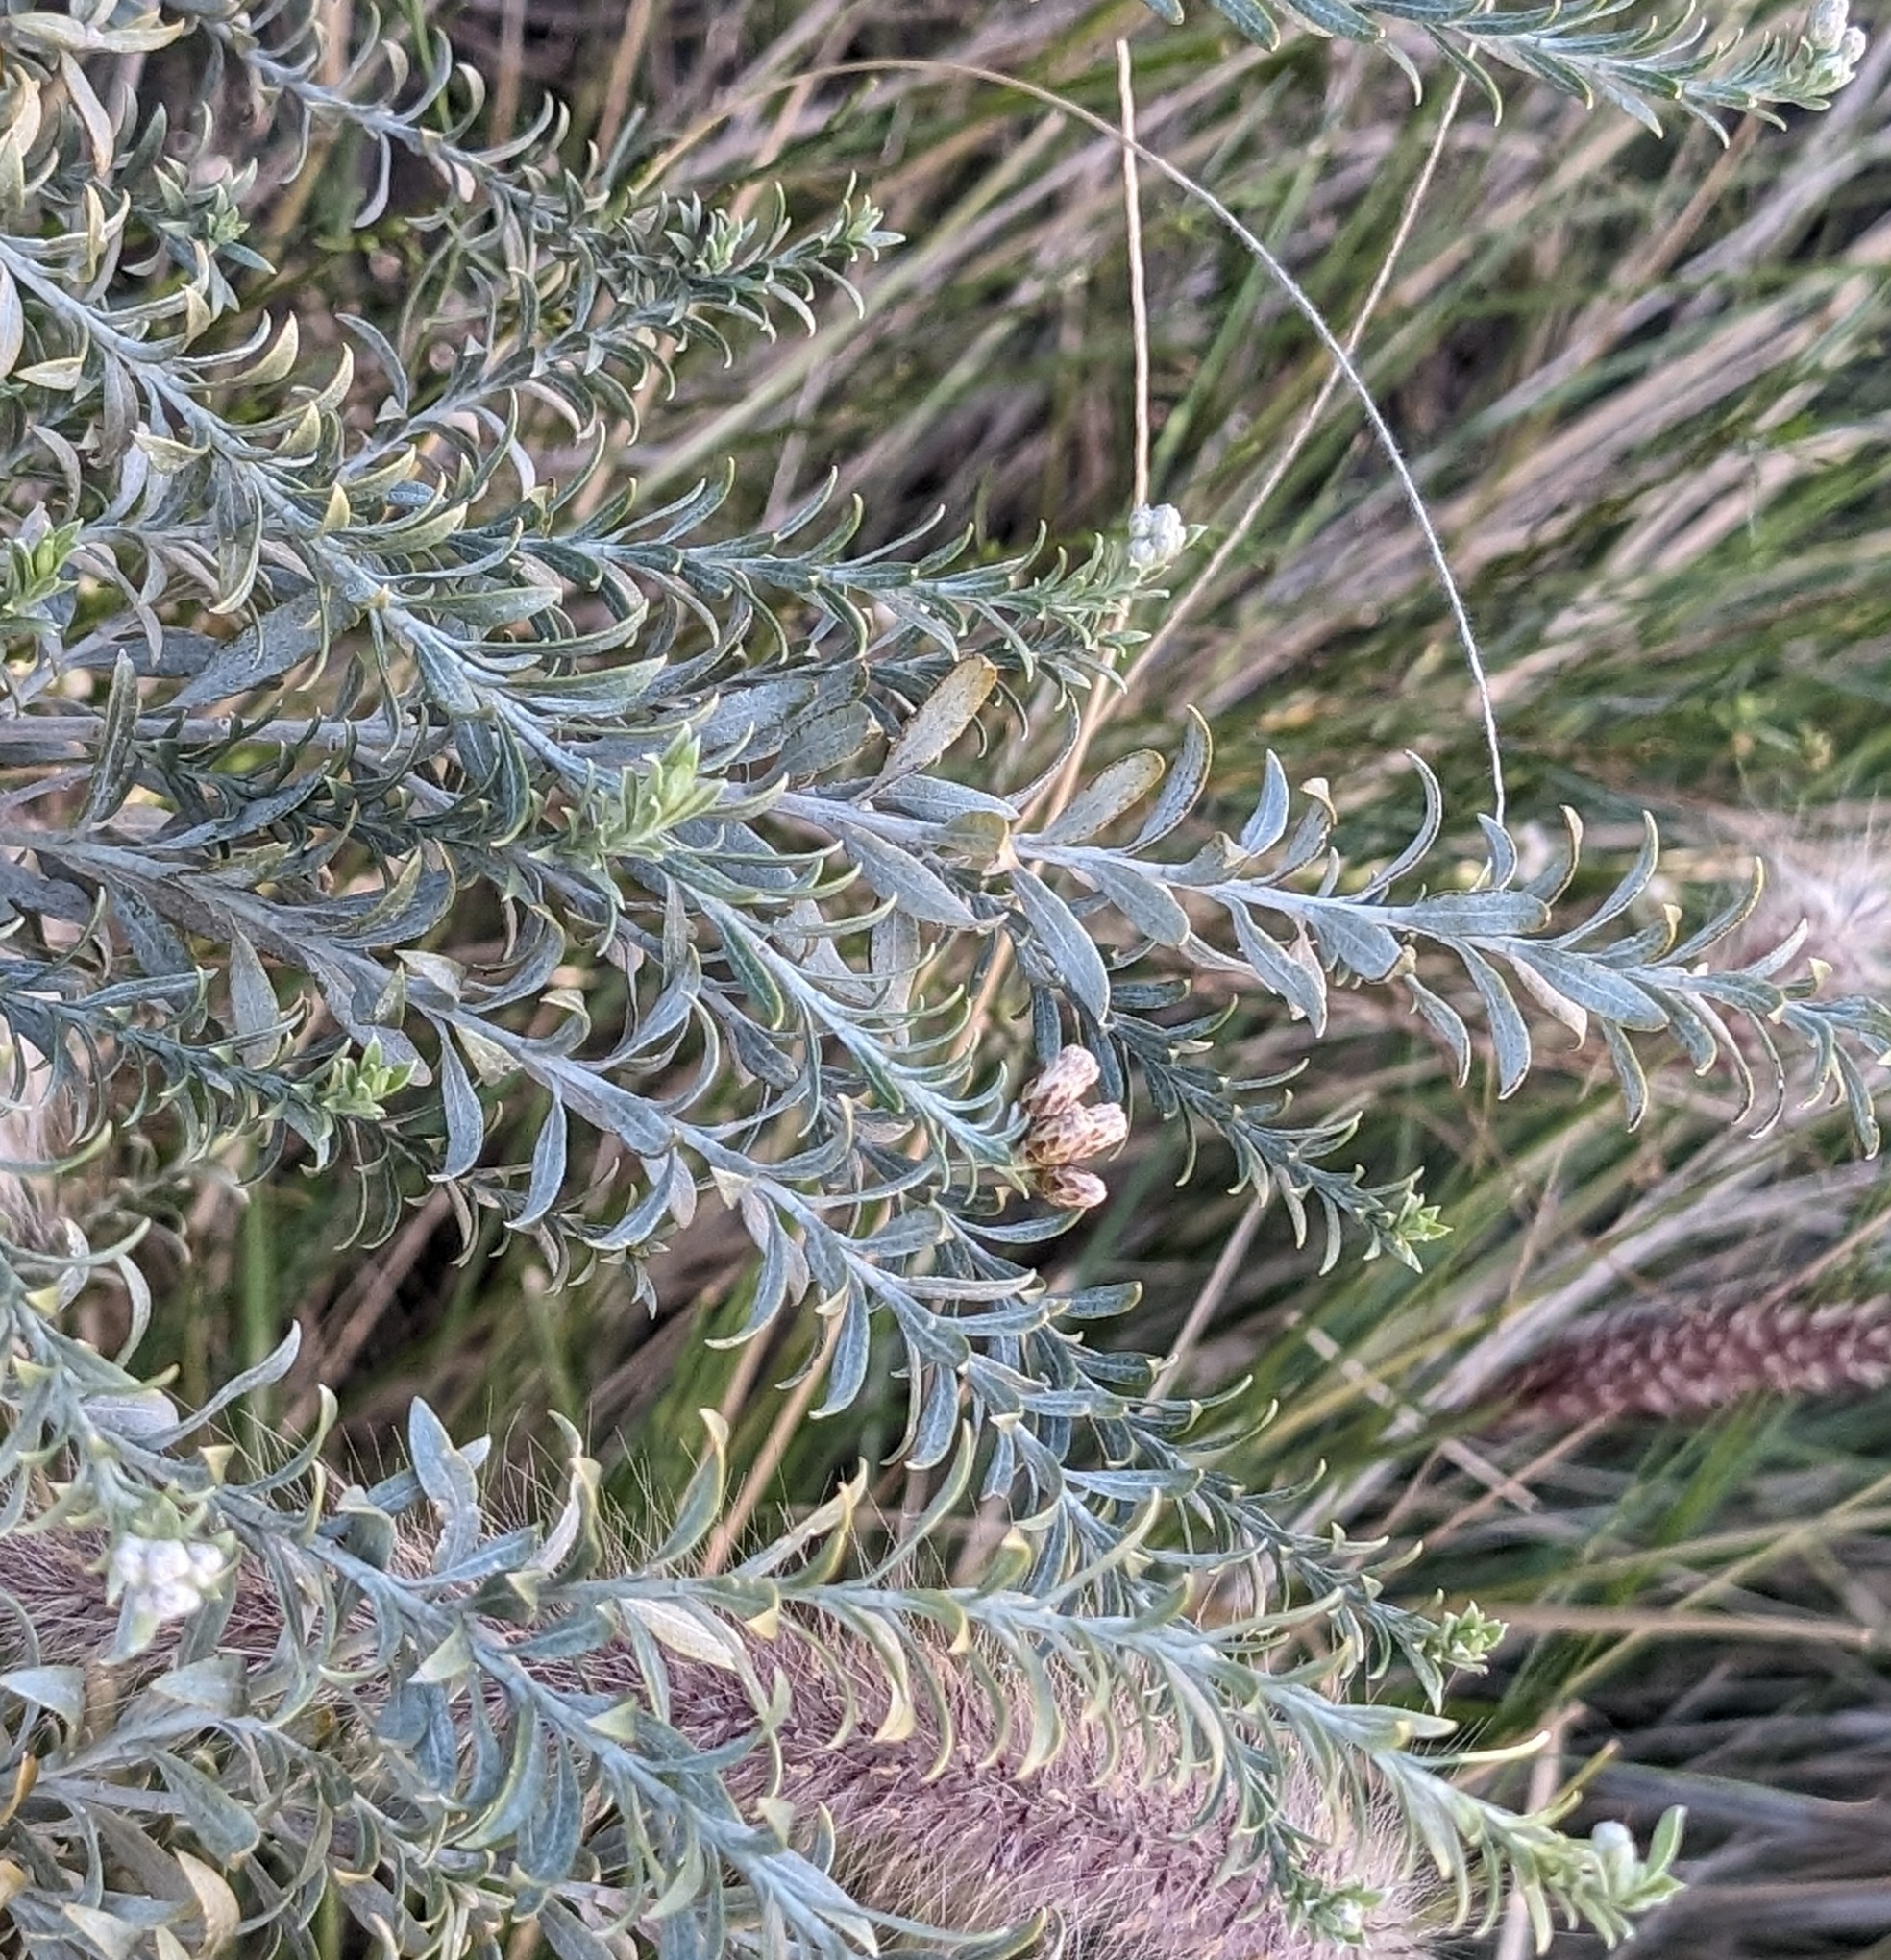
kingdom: Plantae
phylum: Tracheophyta
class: Magnoliopsida
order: Asterales
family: Asteraceae
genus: Pluchea
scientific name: Pluchea sericea
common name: Arrow-weed
